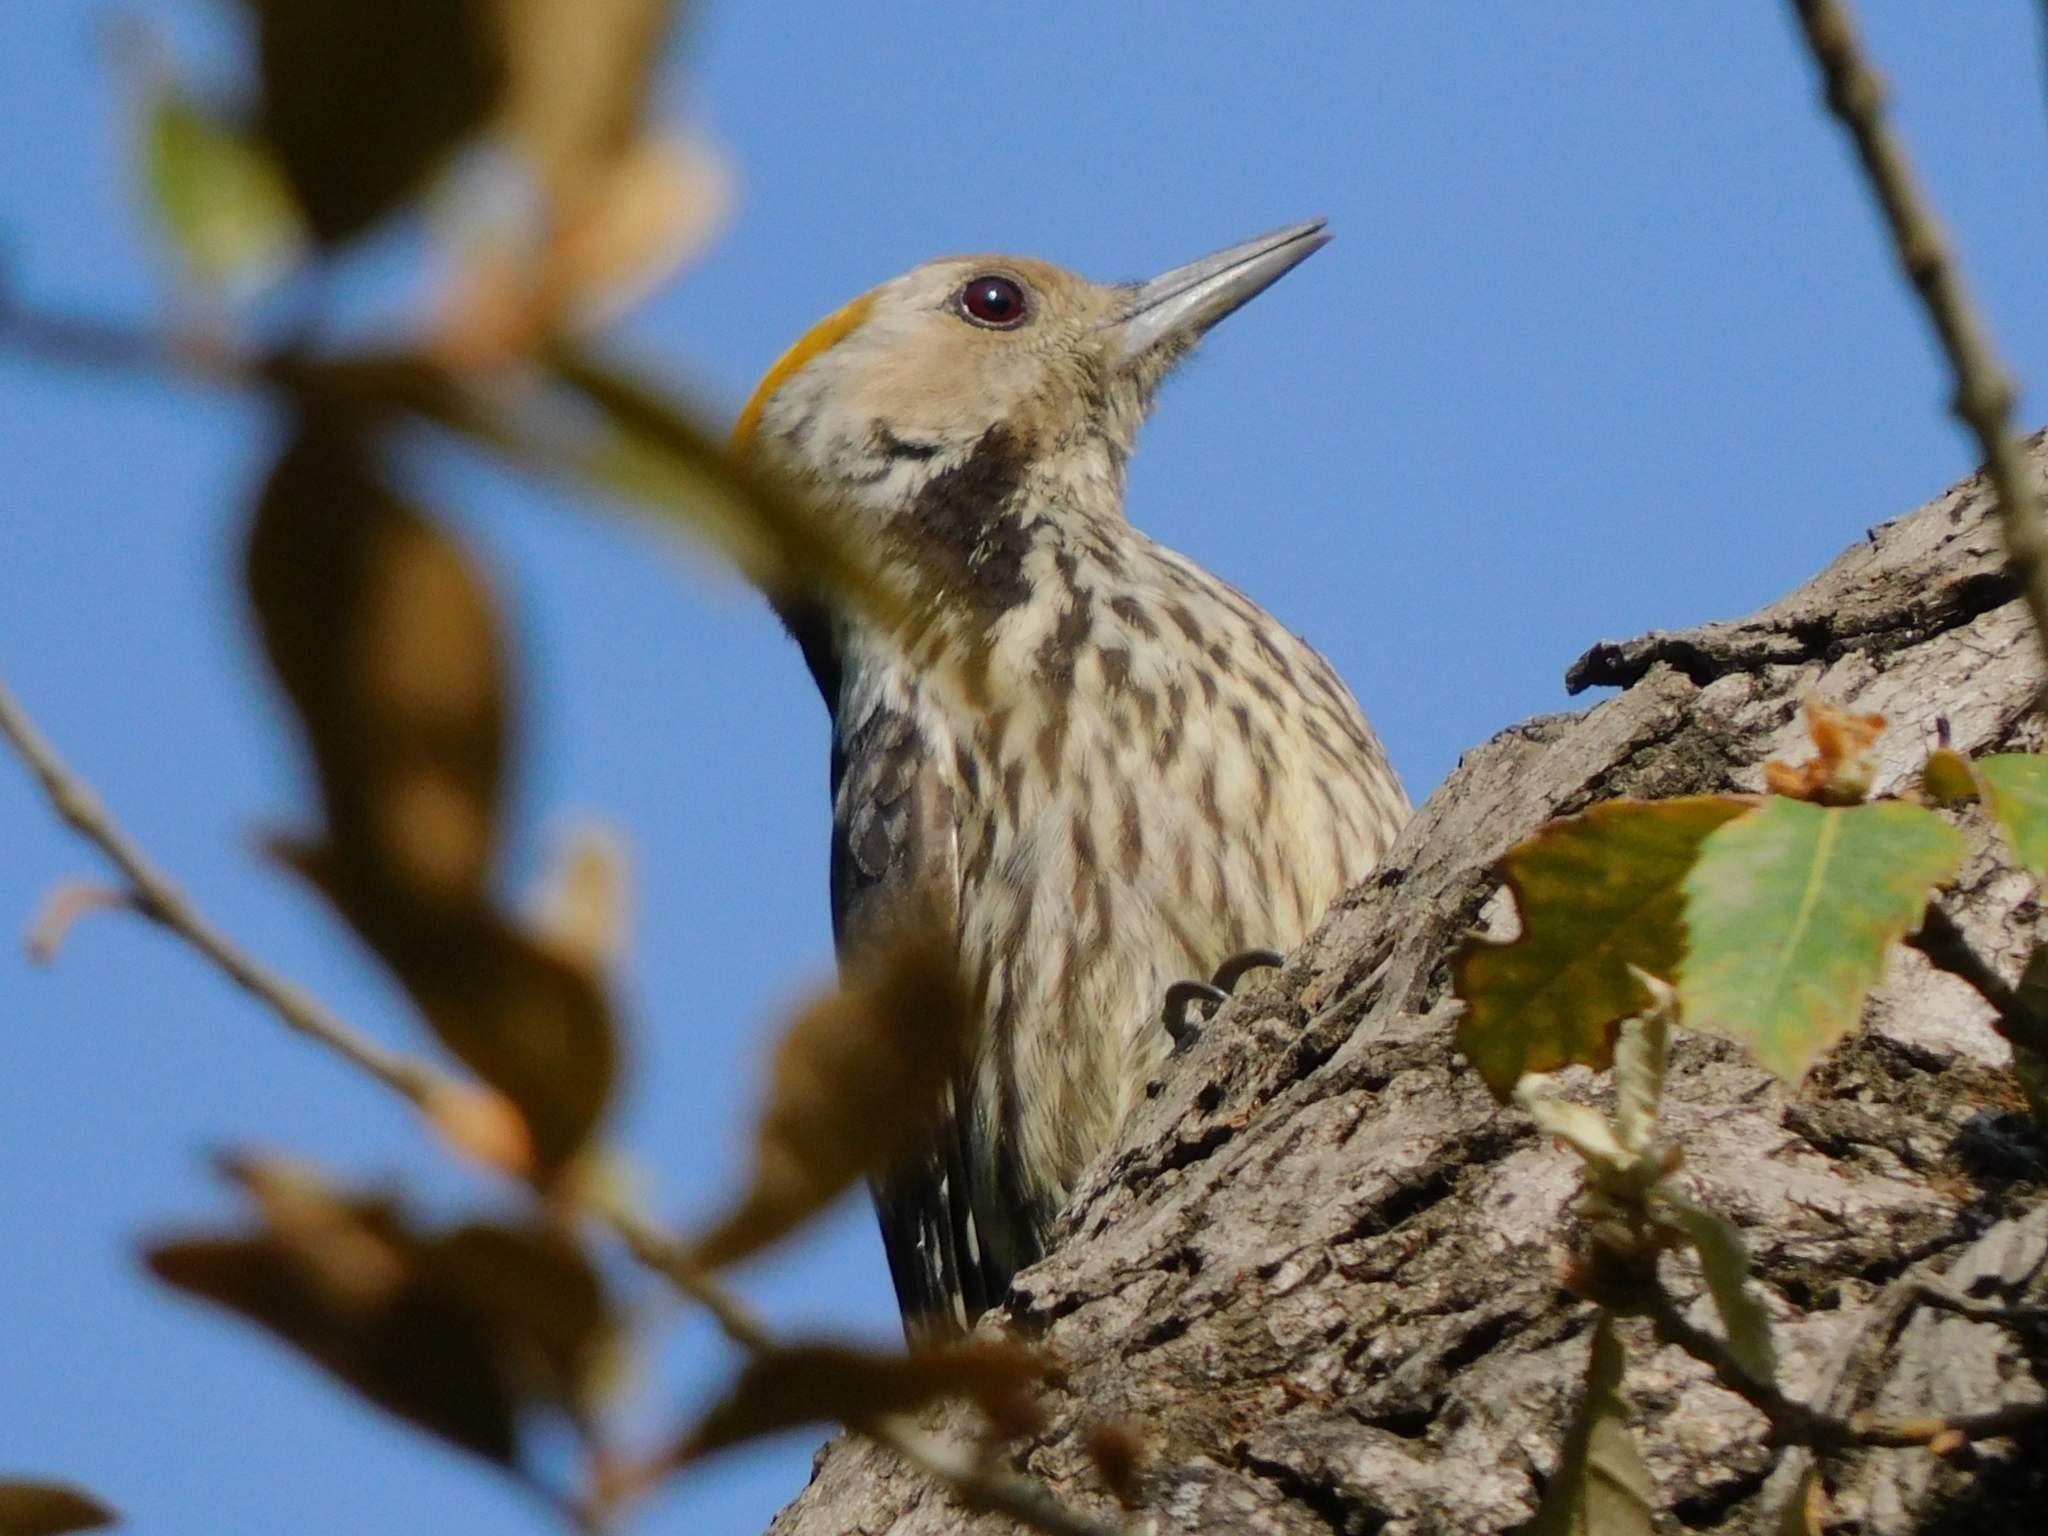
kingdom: Animalia
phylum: Chordata
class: Aves
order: Piciformes
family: Picidae
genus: Dendrocoptes
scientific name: Dendrocoptes auriceps
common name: Brown-fronted woodpecker
